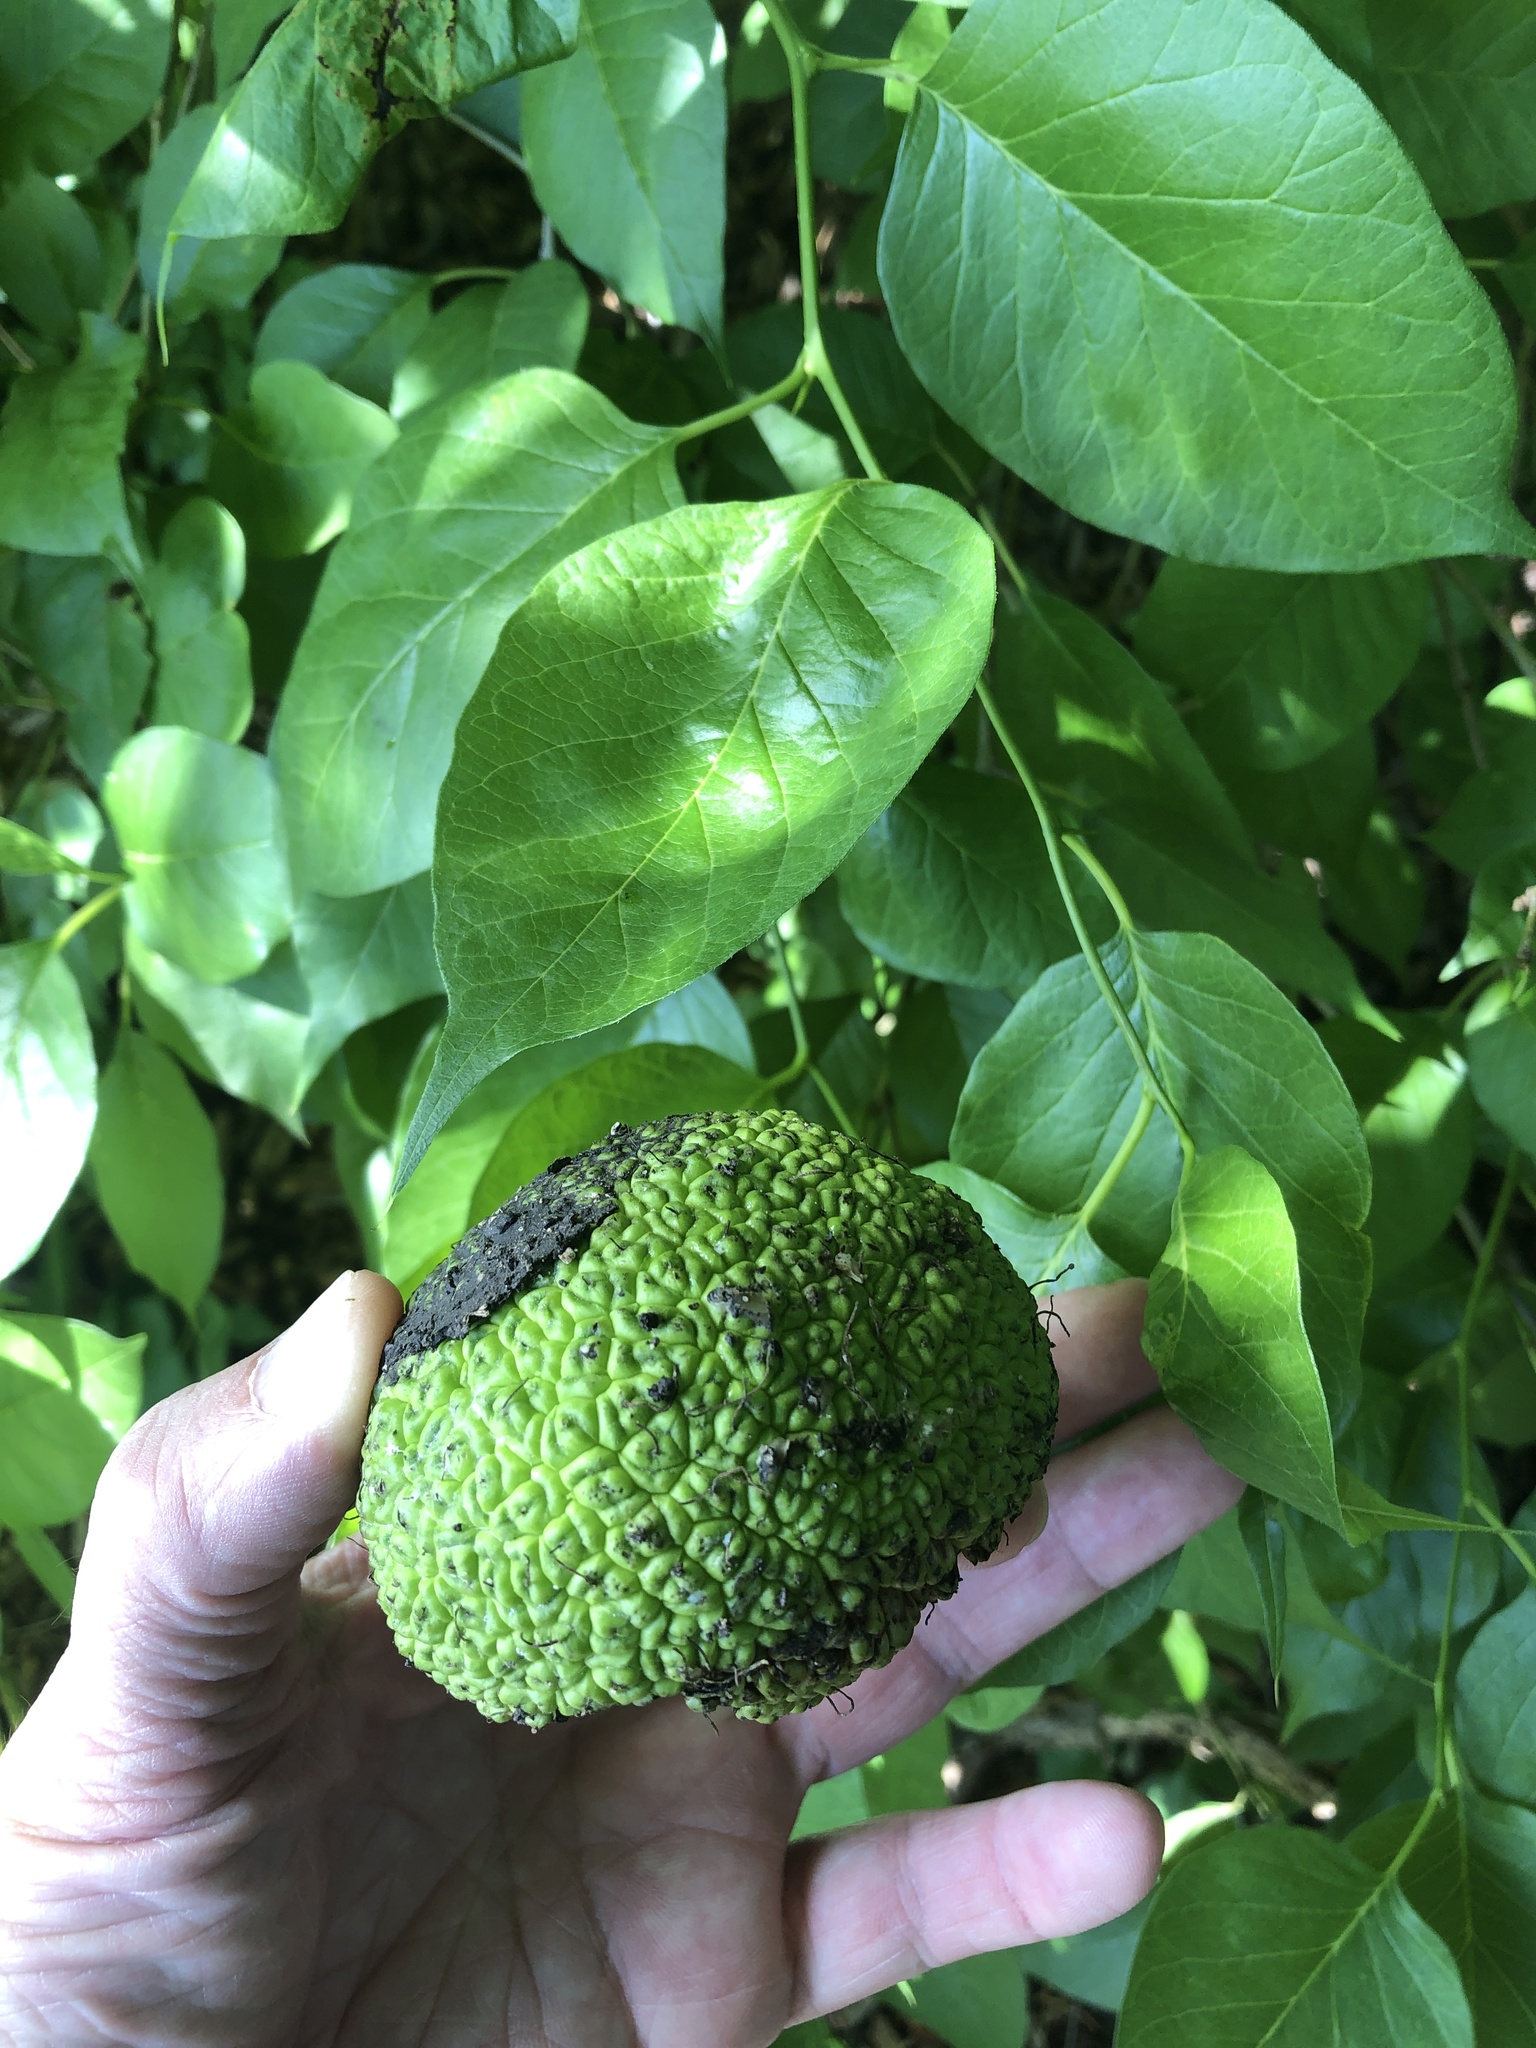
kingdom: Plantae
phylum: Tracheophyta
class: Magnoliopsida
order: Rosales
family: Moraceae
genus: Maclura
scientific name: Maclura pomifera
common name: Osage-orange
